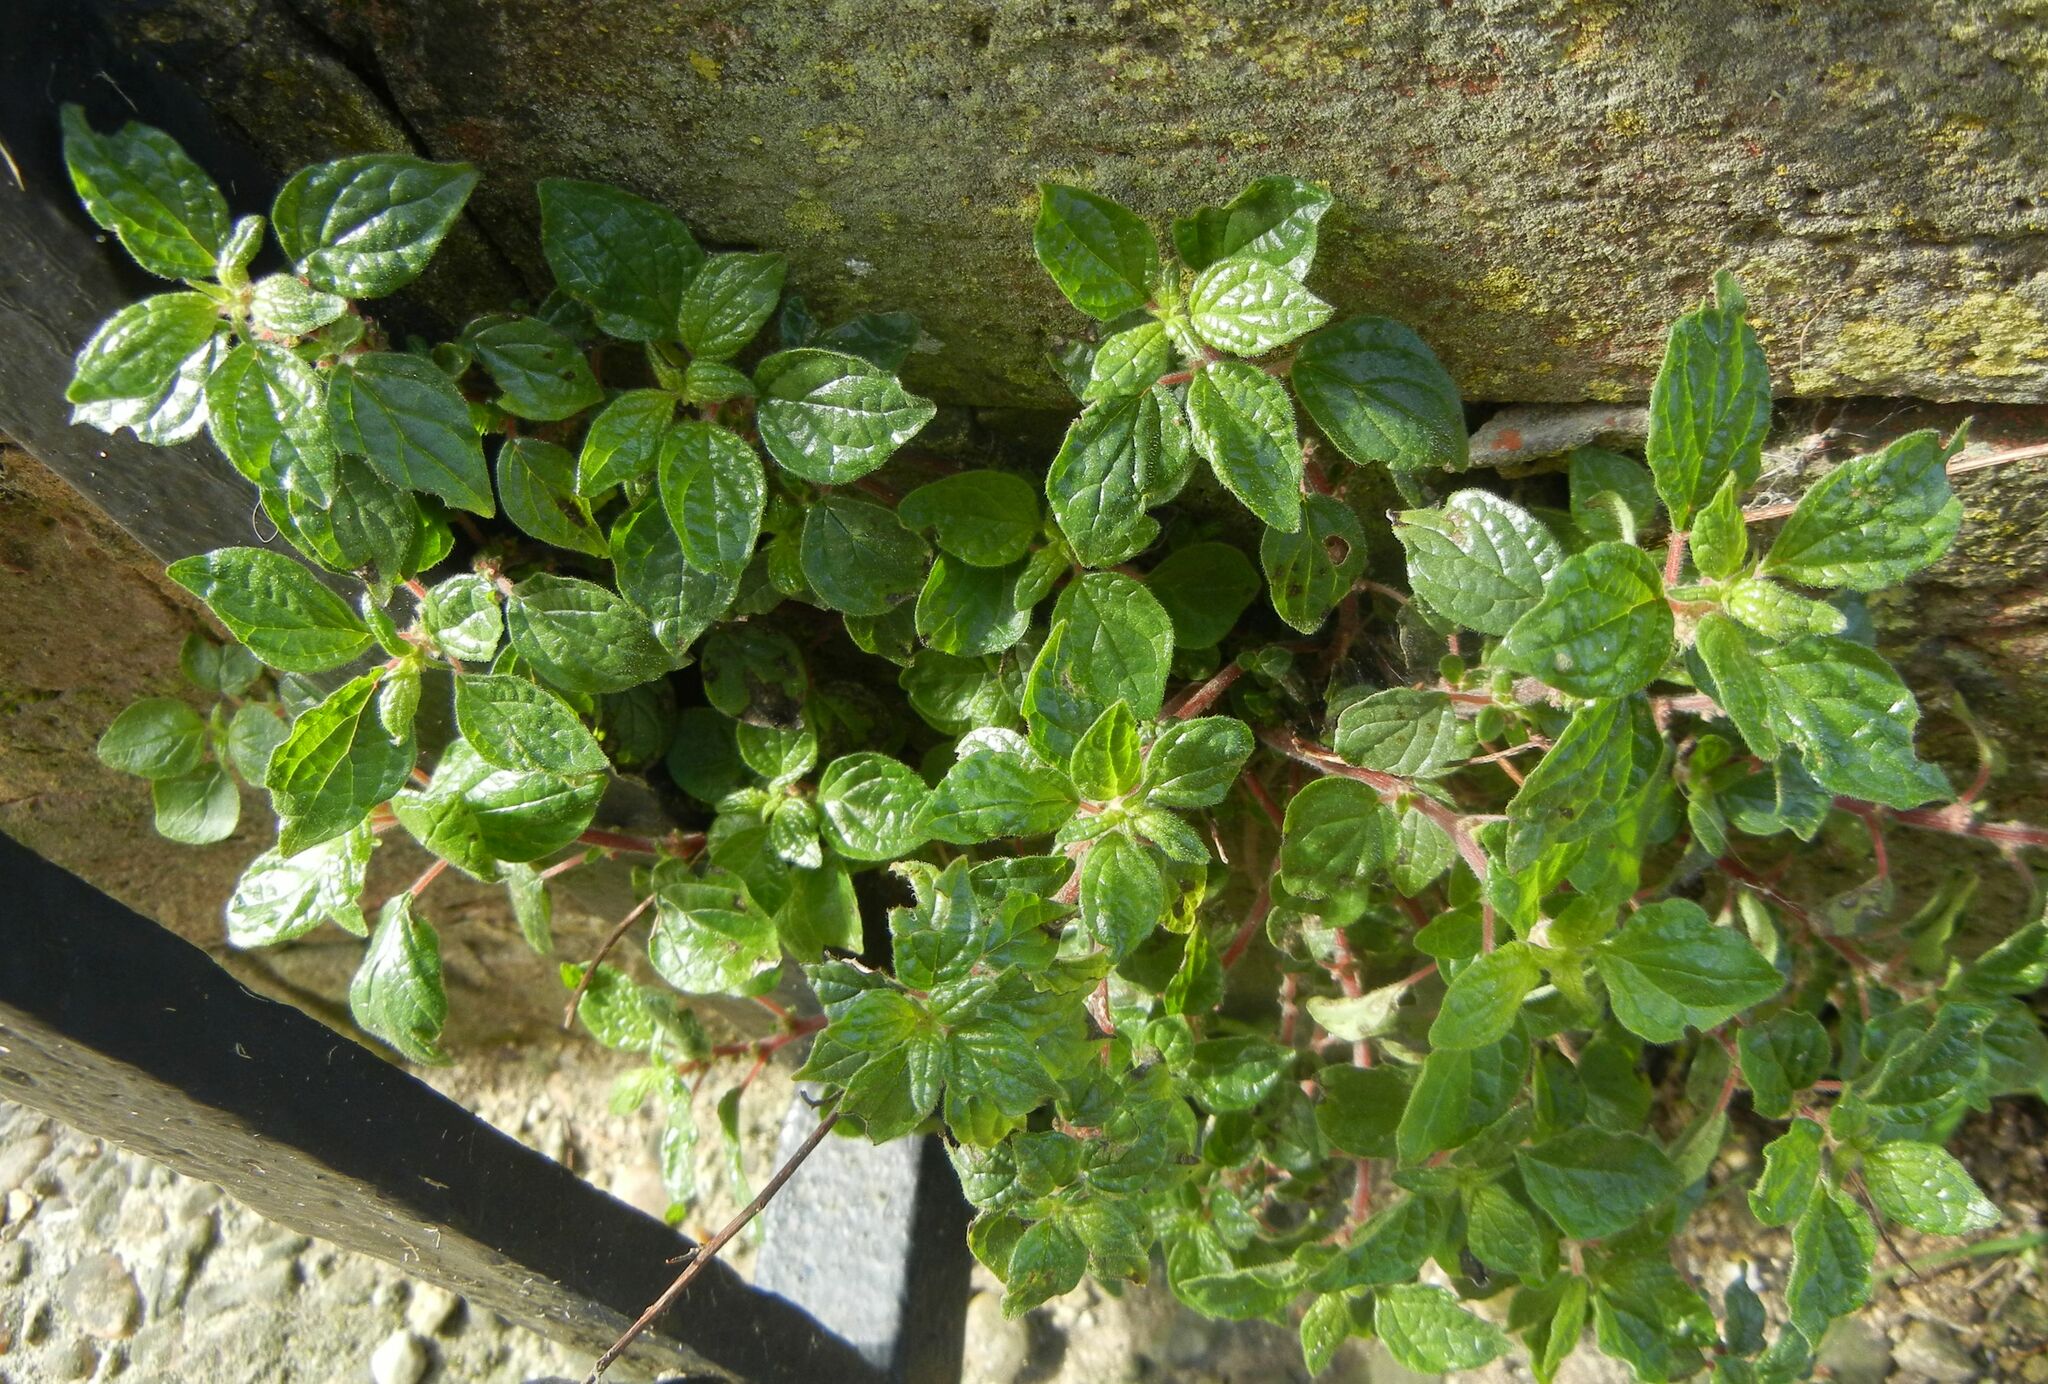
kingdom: Plantae
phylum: Tracheophyta
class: Magnoliopsida
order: Rosales
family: Urticaceae
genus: Parietaria
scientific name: Parietaria judaica
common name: Pellitory-of-the-wall
